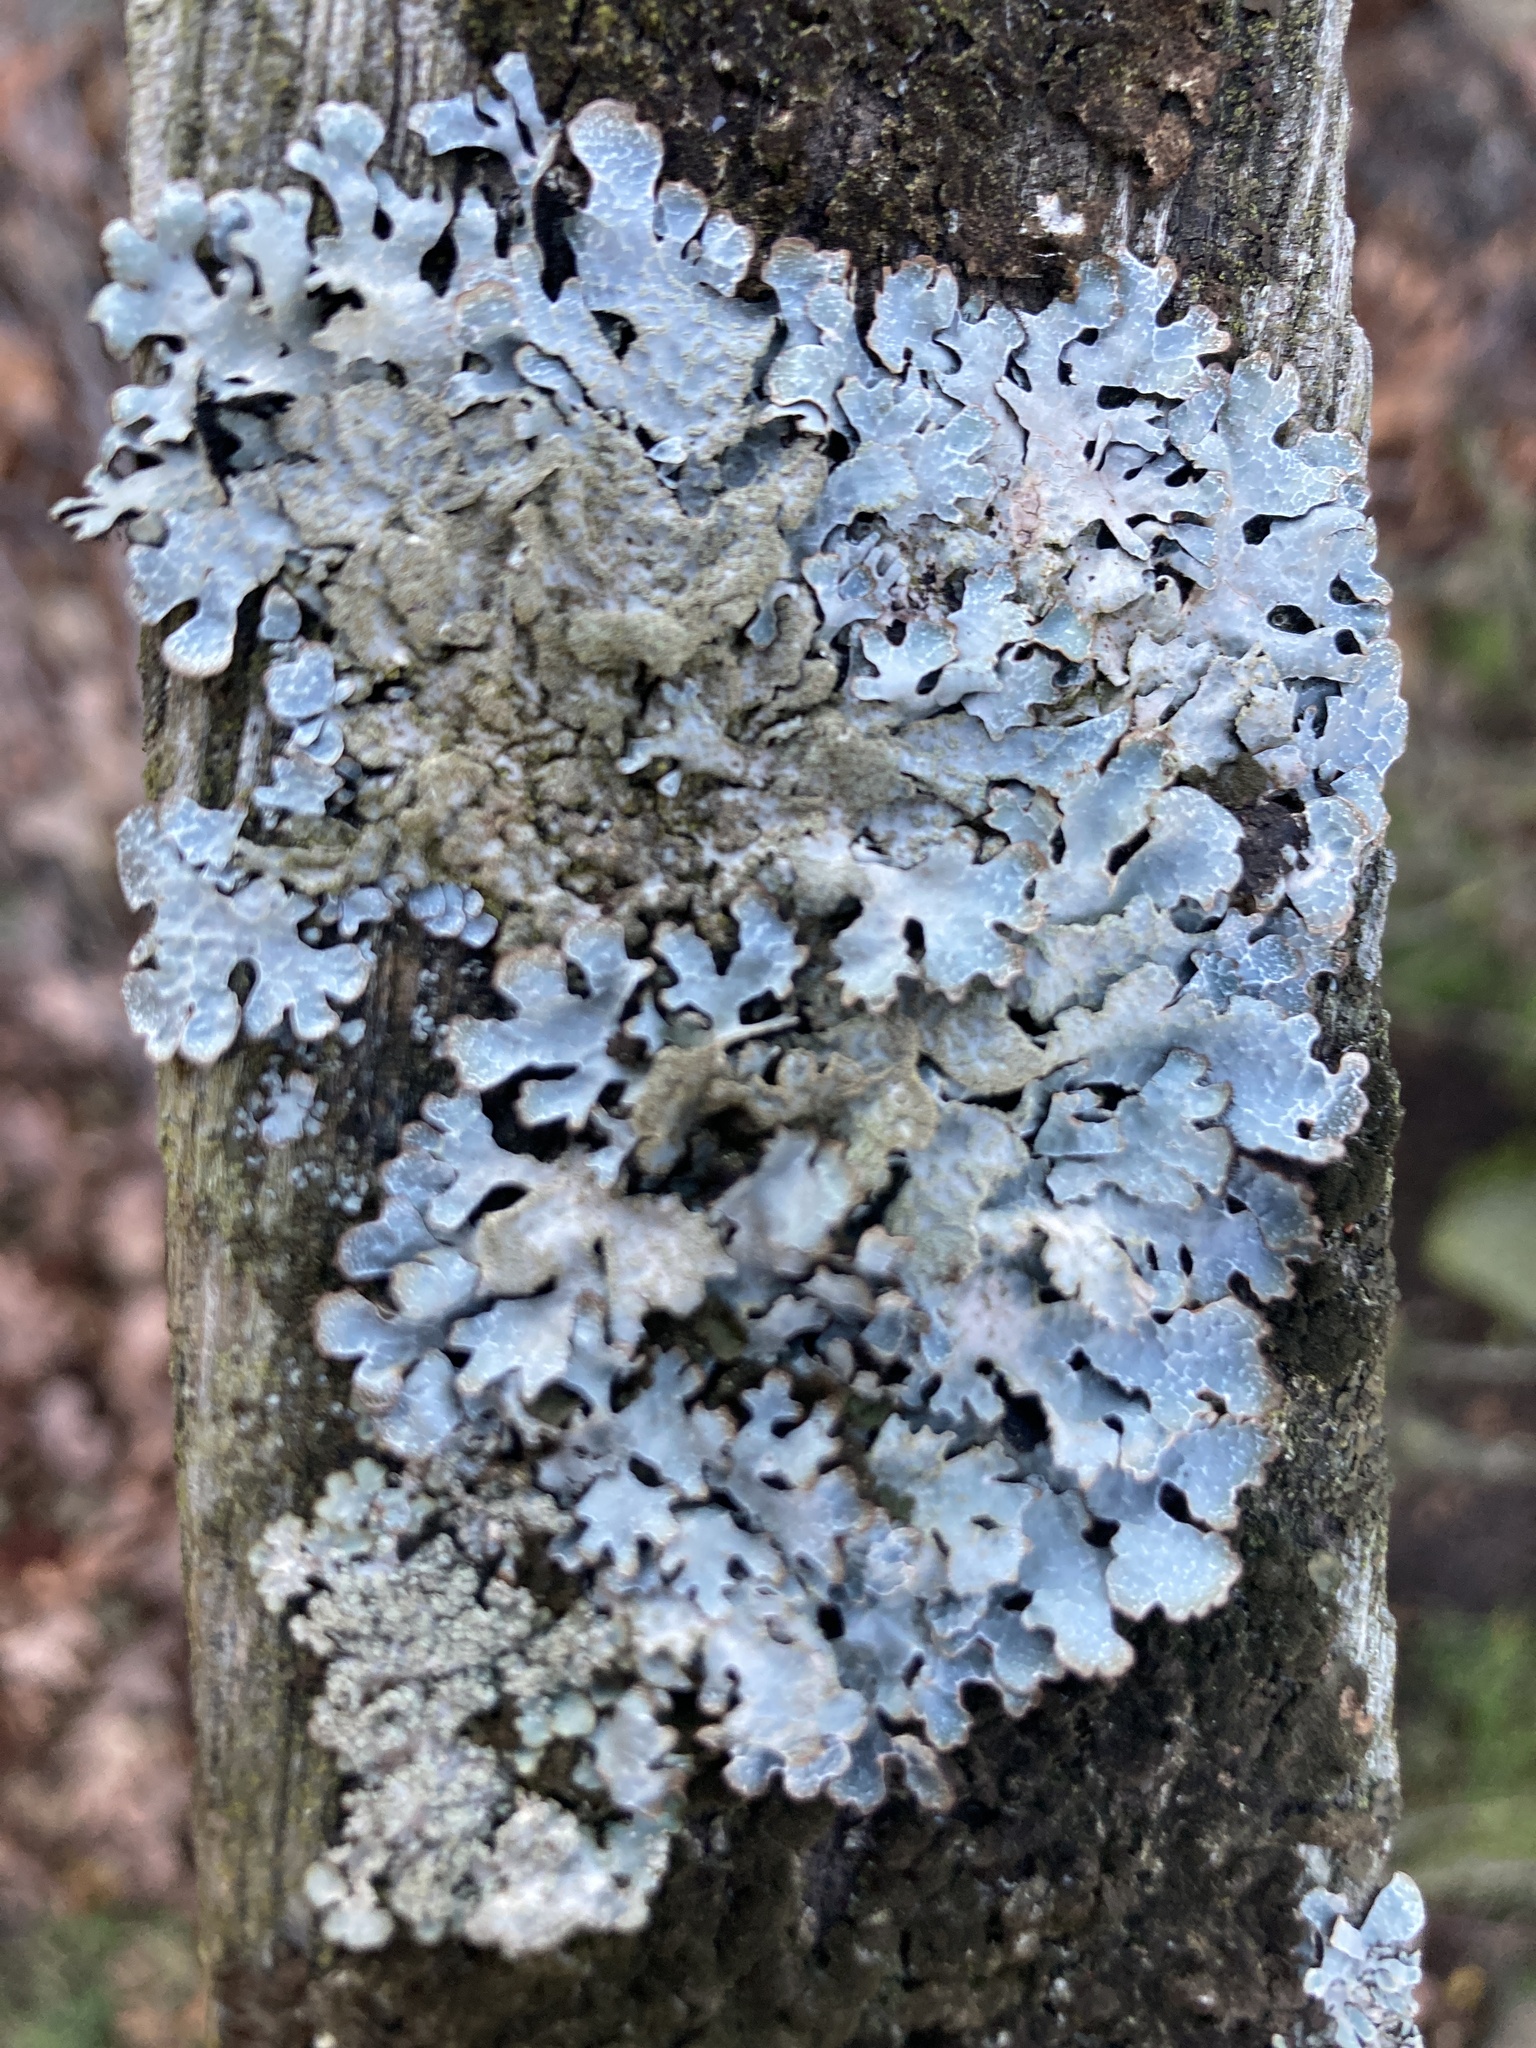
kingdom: Fungi
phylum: Ascomycota
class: Lecanoromycetes
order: Lecanorales
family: Parmeliaceae
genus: Parmelia
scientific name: Parmelia sulcata
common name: Netted shield lichen
